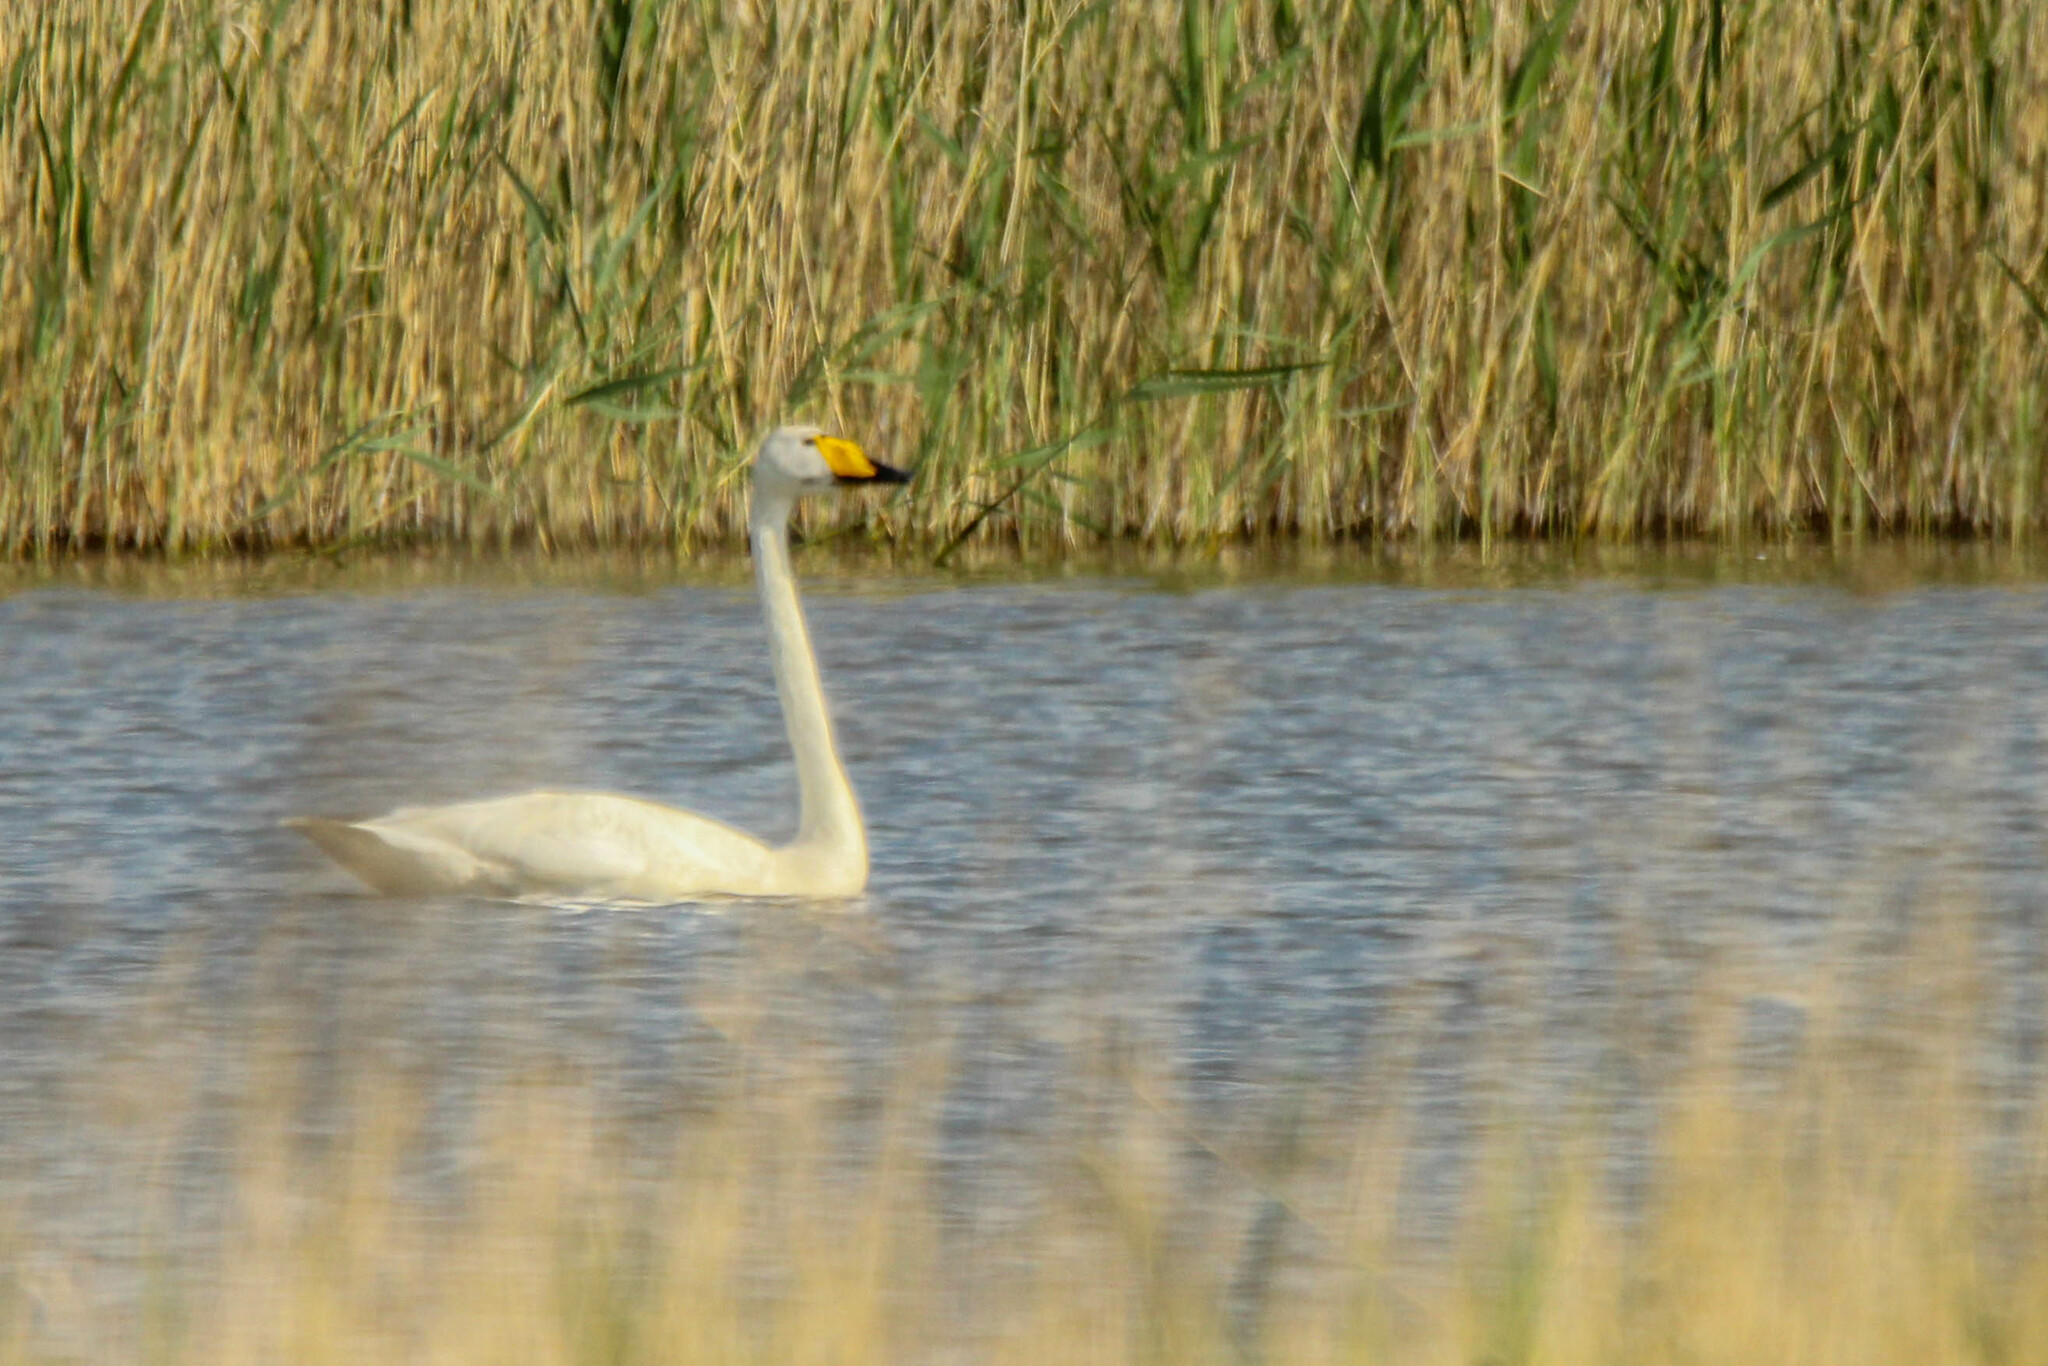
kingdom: Animalia
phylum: Chordata
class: Aves
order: Anseriformes
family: Anatidae
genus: Cygnus
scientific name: Cygnus cygnus
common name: Whooper swan
